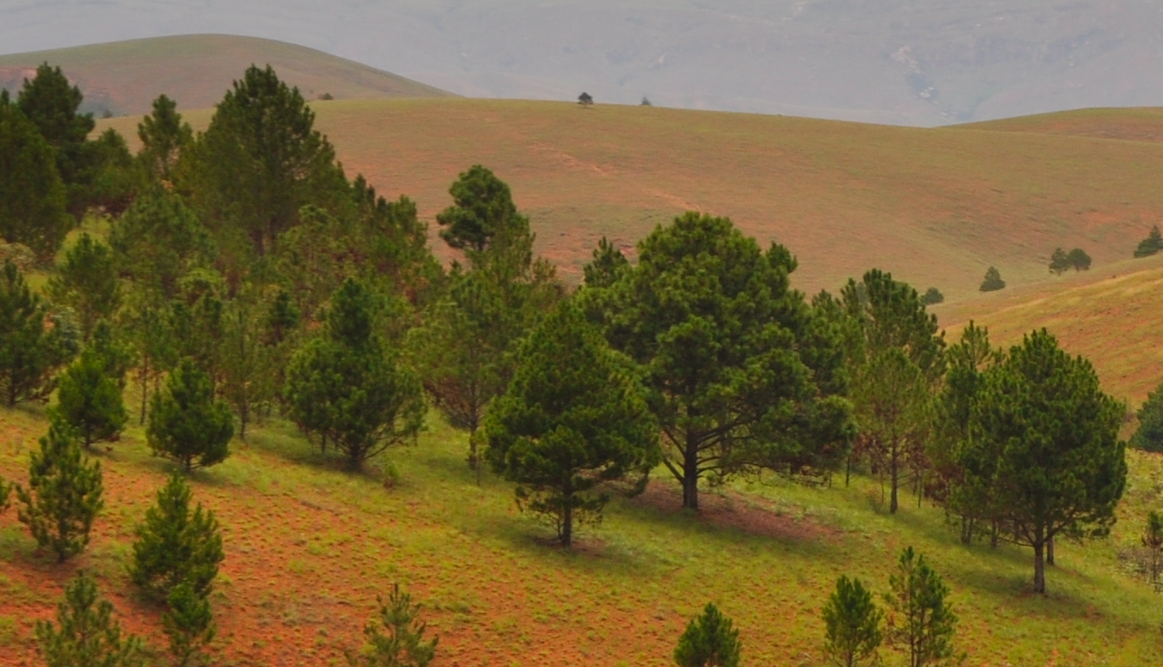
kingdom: Plantae
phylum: Tracheophyta
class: Pinopsida
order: Pinales
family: Pinaceae
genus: Pinus
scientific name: Pinus kesiya
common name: Benguet pine
